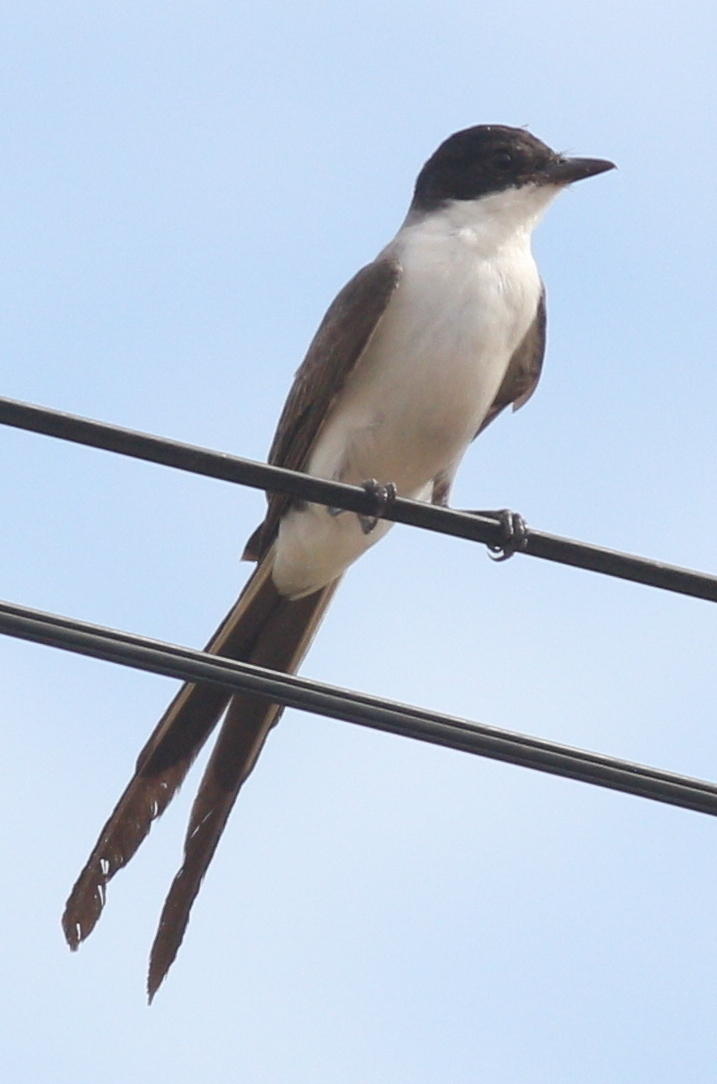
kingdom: Animalia
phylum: Chordata
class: Aves
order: Passeriformes
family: Tyrannidae
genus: Tyrannus
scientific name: Tyrannus savana
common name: Fork-tailed flycatcher
